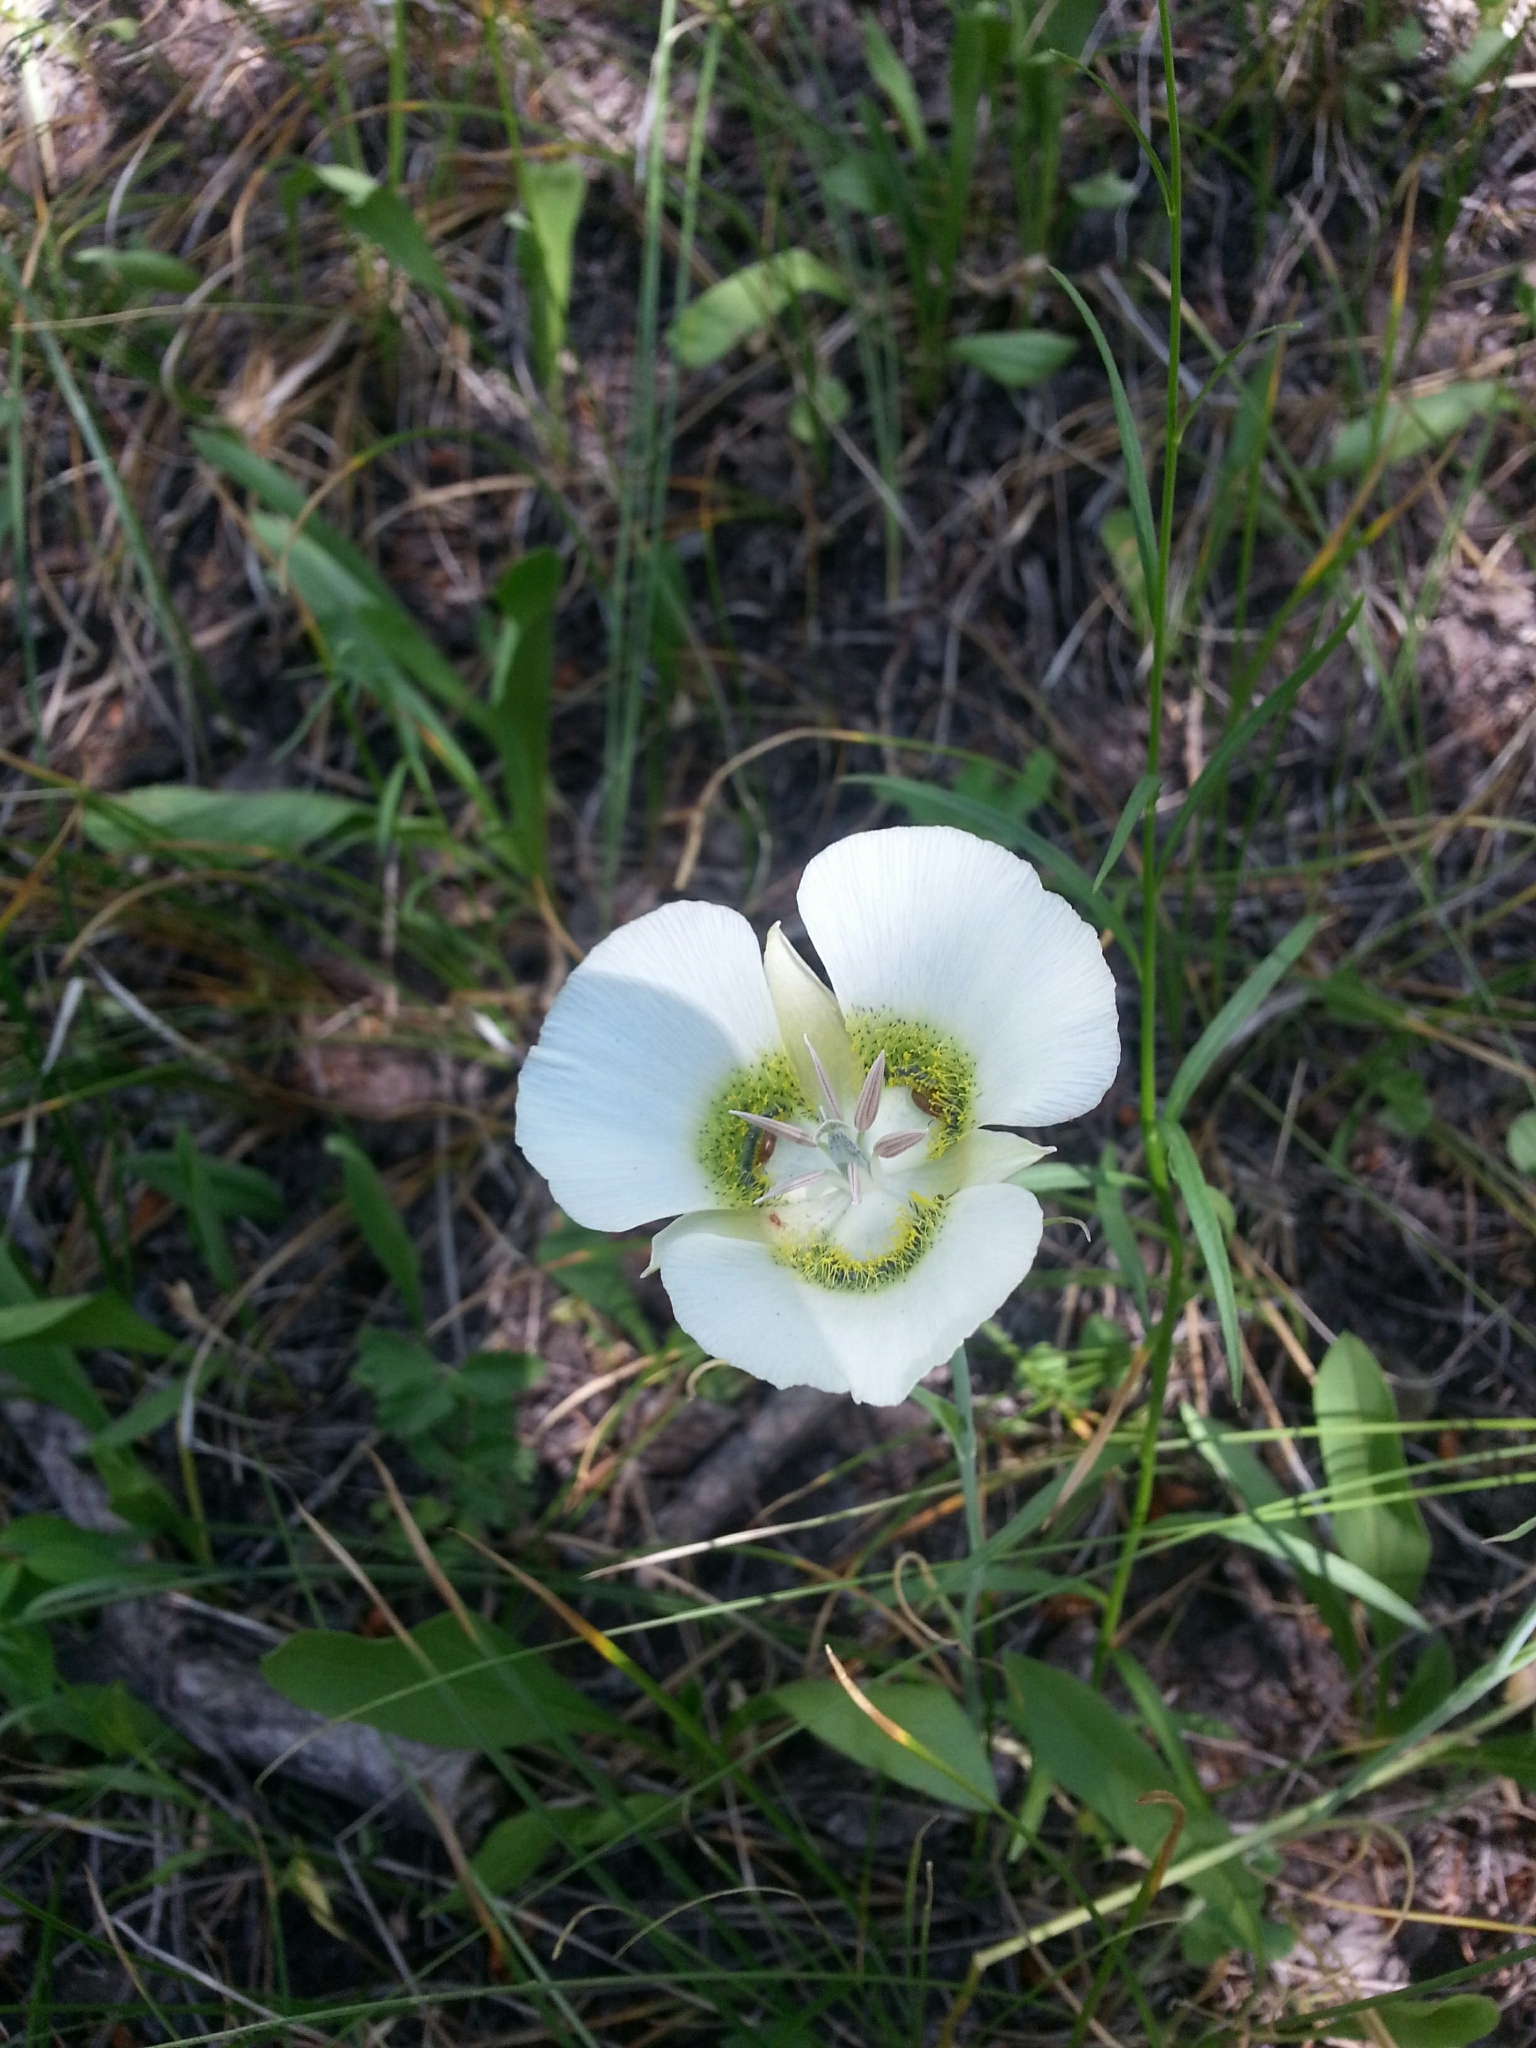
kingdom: Plantae
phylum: Tracheophyta
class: Liliopsida
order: Liliales
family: Liliaceae
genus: Calochortus
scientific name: Calochortus gunnisonii
